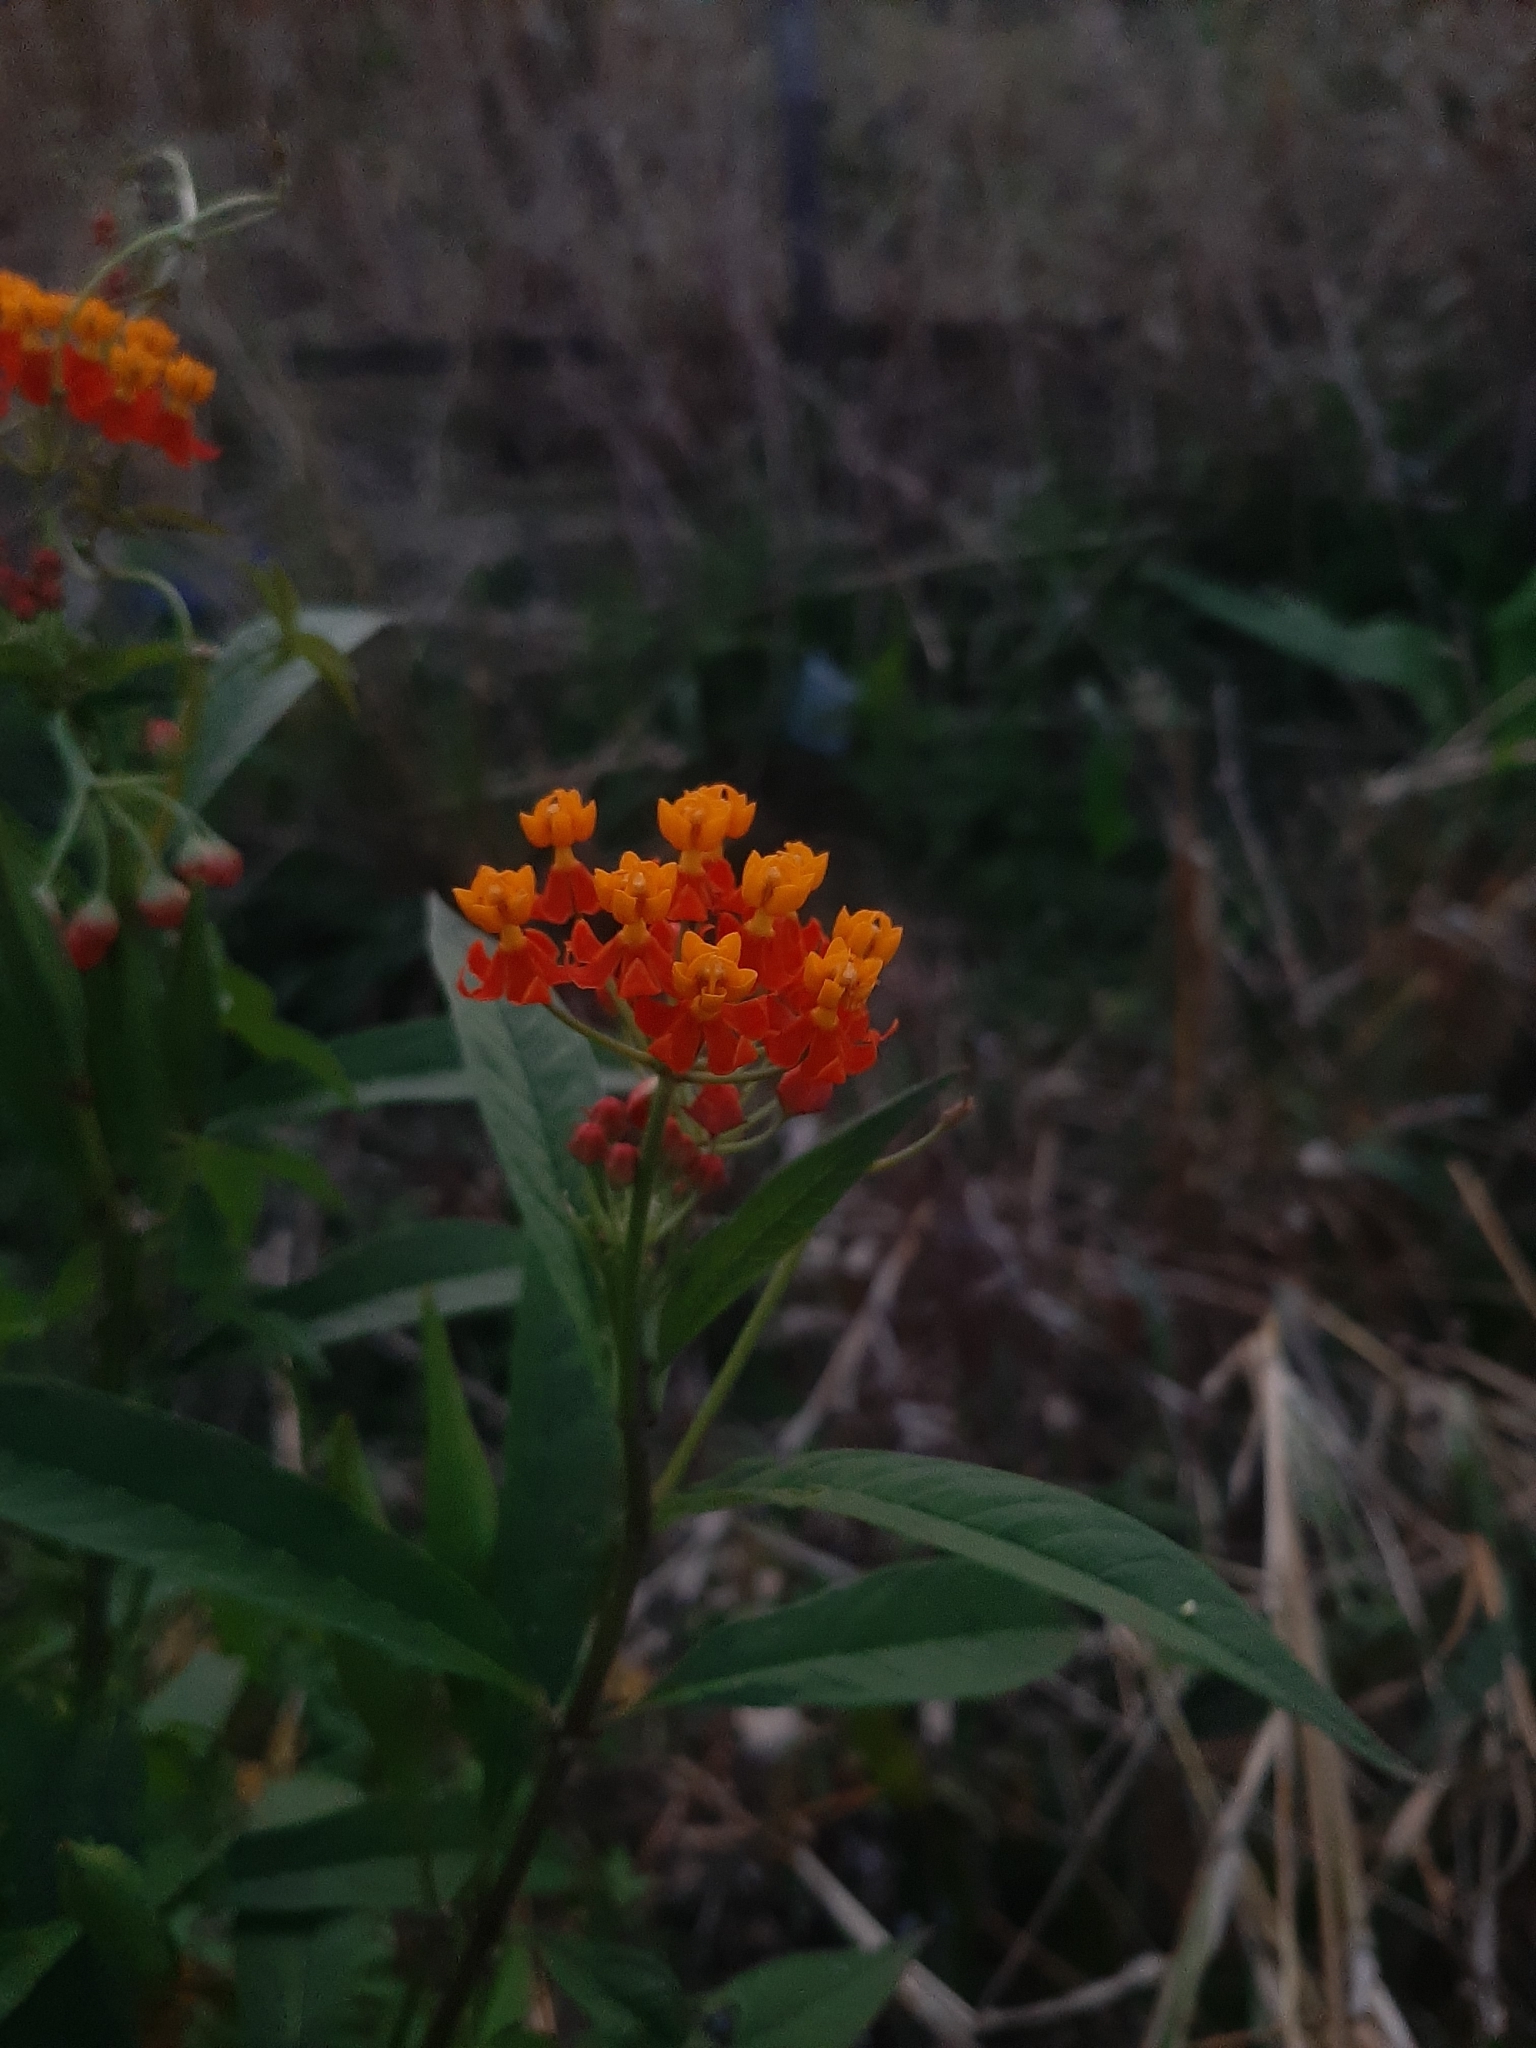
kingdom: Plantae
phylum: Tracheophyta
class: Magnoliopsida
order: Gentianales
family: Apocynaceae
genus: Asclepias
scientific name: Asclepias curassavica
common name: Bloodflower
